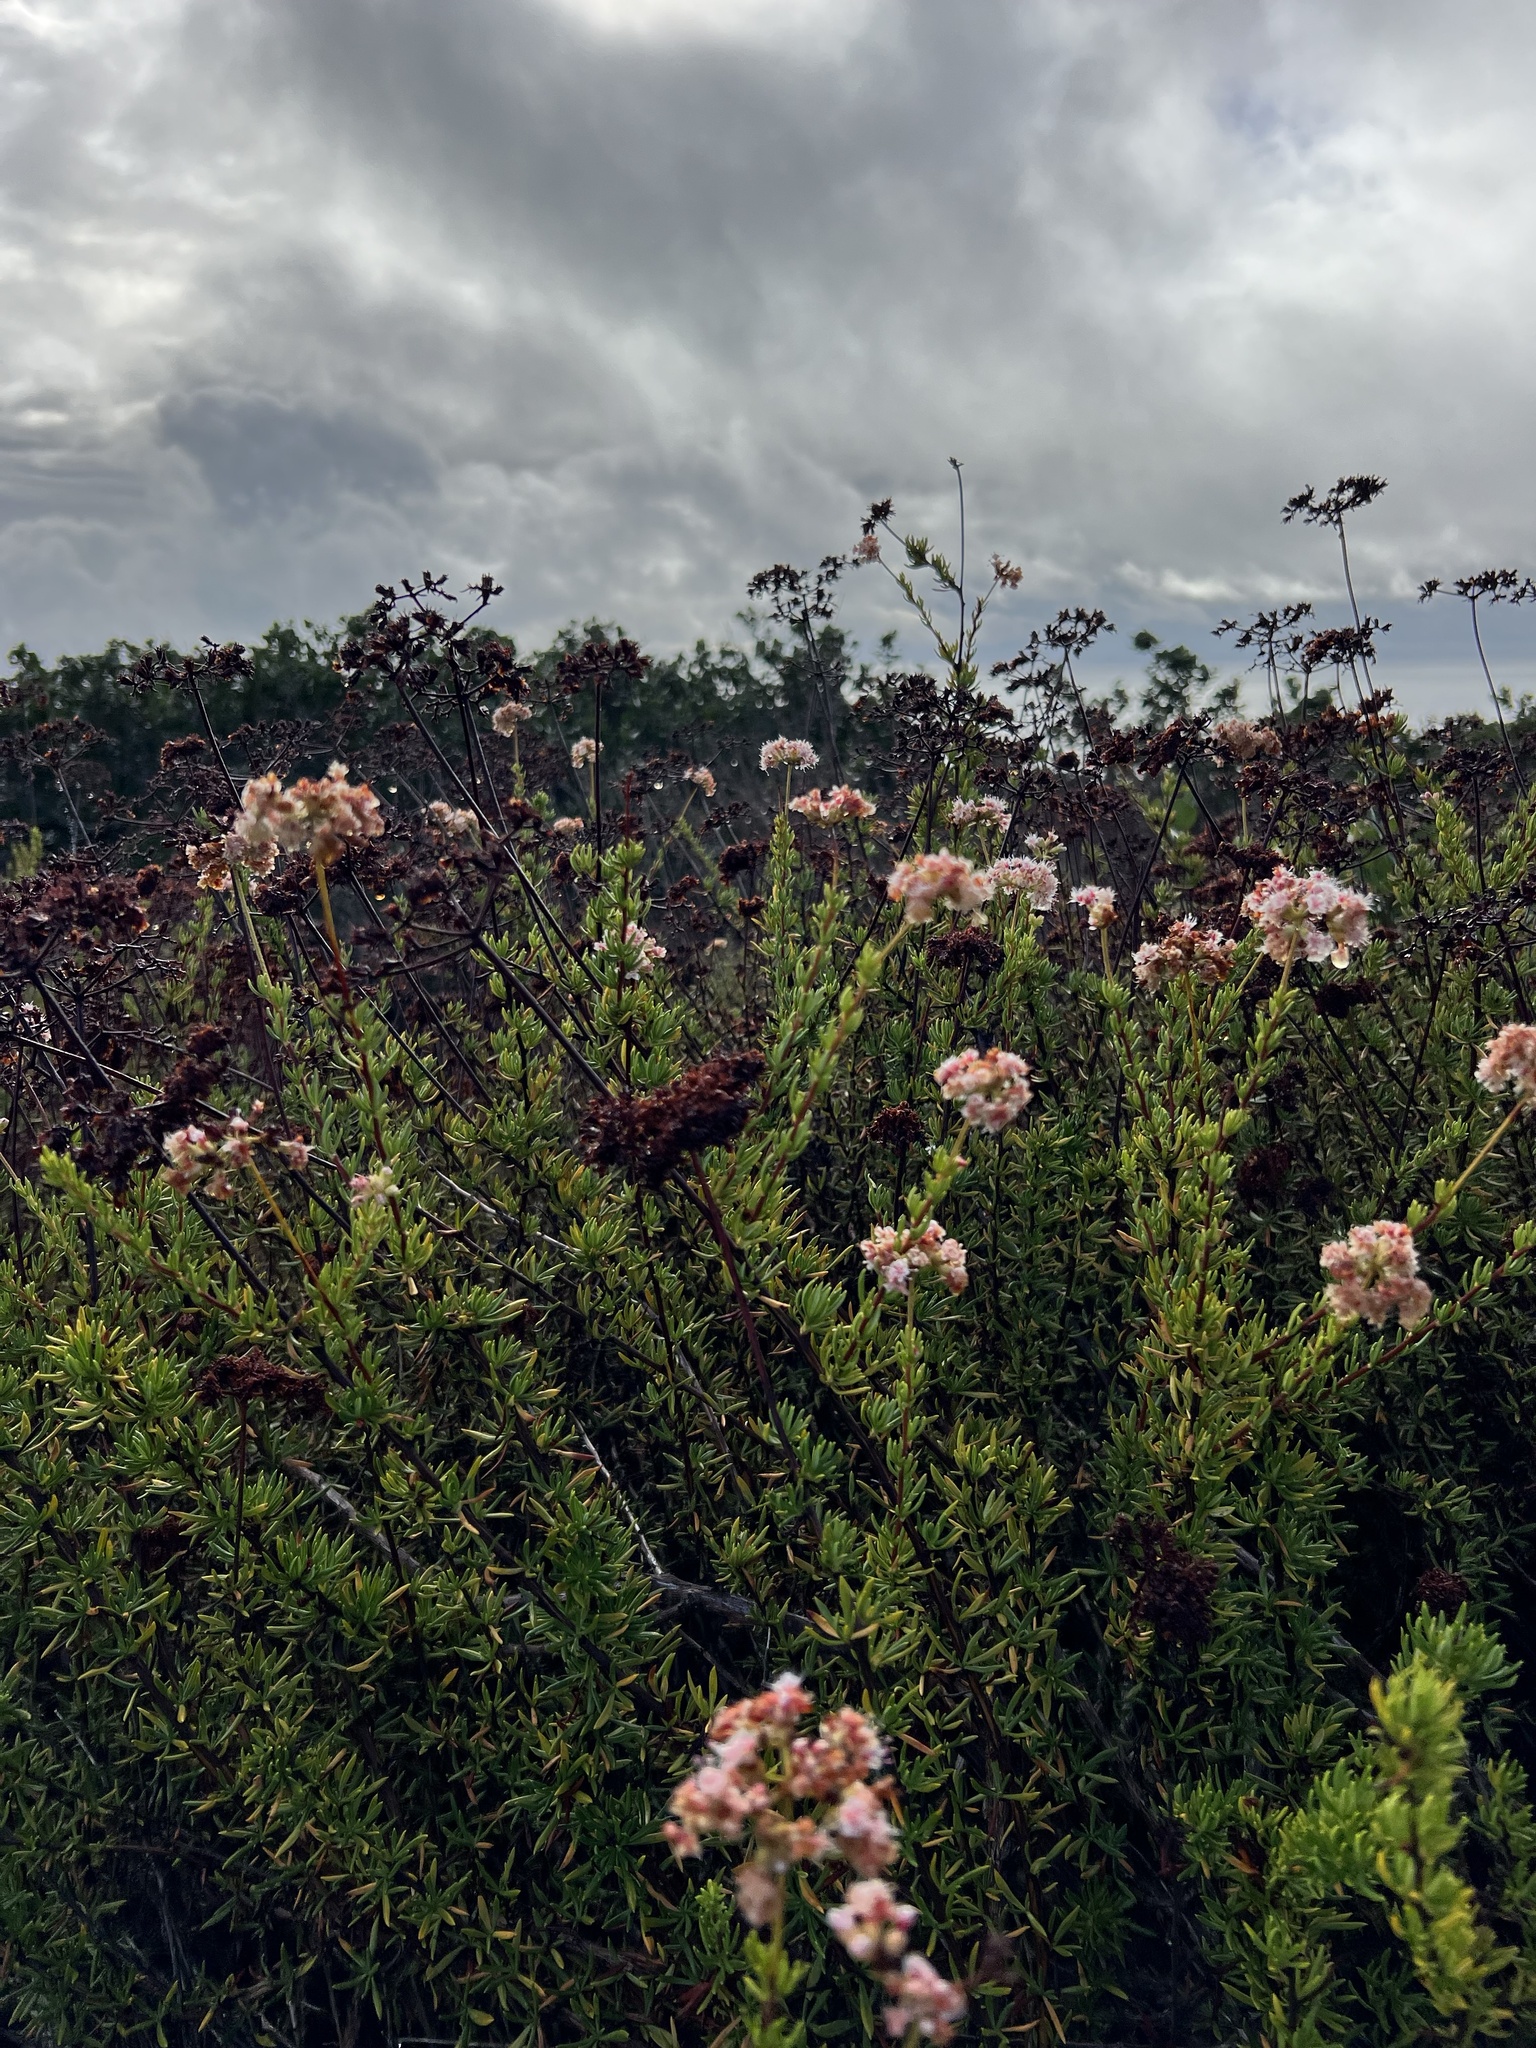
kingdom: Plantae
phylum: Tracheophyta
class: Magnoliopsida
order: Caryophyllales
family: Polygonaceae
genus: Eriogonum
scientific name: Eriogonum fasciculatum
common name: California wild buckwheat
